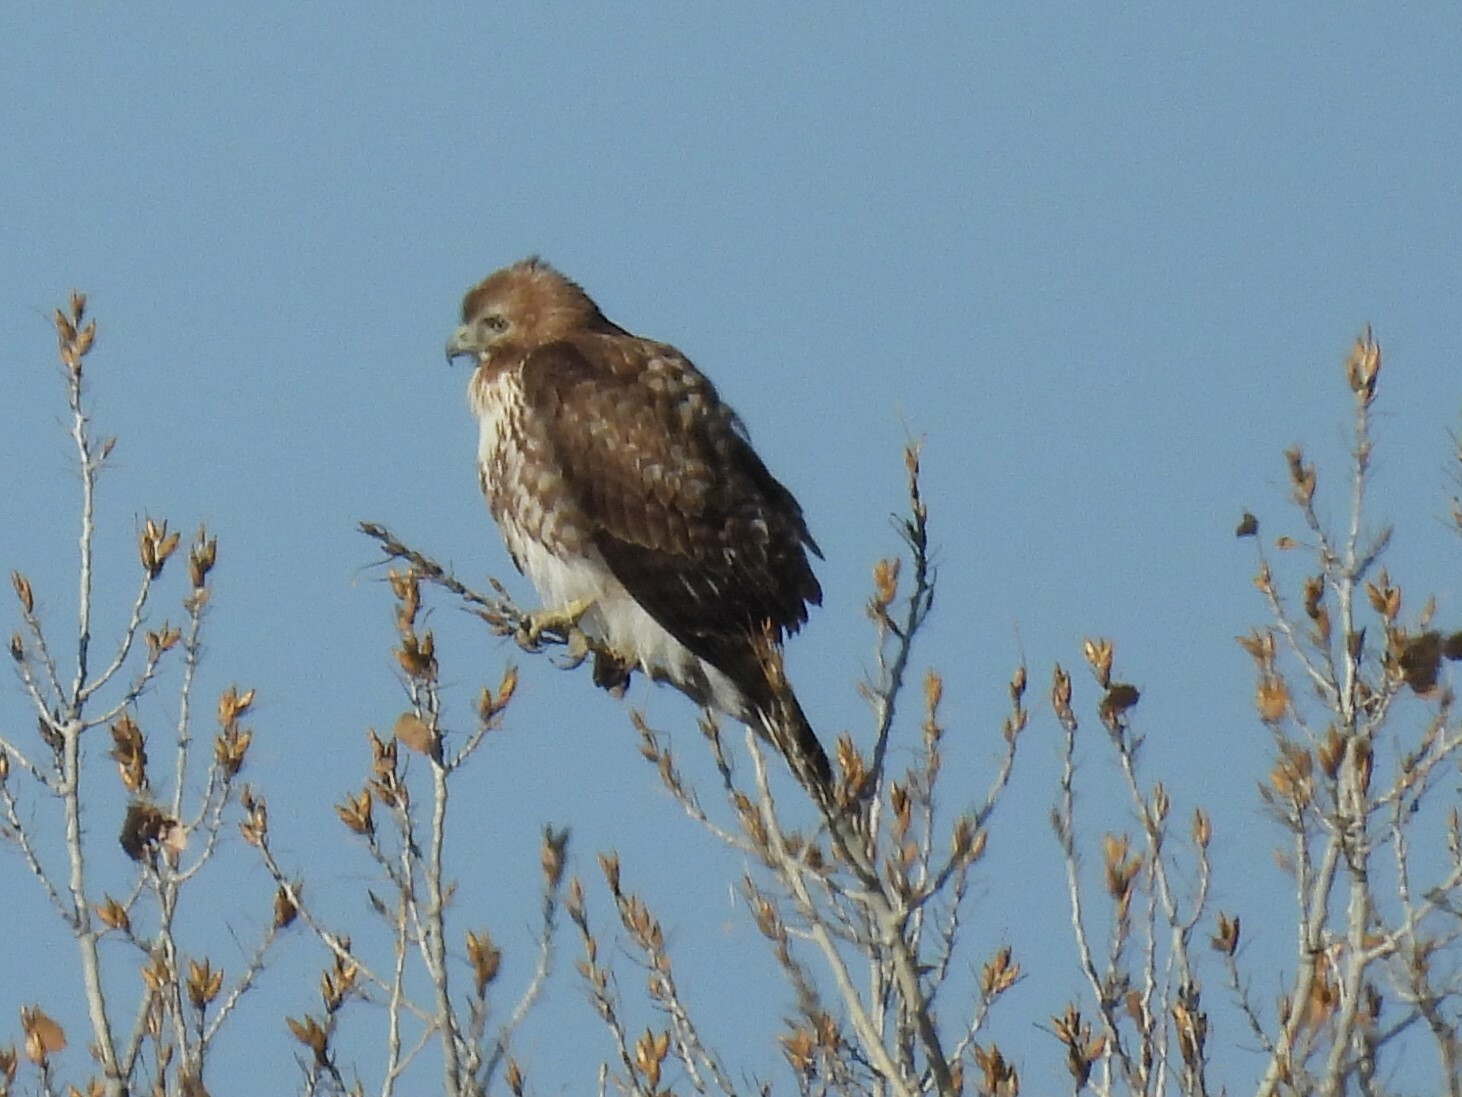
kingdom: Animalia
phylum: Chordata
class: Aves
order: Accipitriformes
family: Accipitridae
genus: Buteo
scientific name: Buteo jamaicensis
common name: Red-tailed hawk
